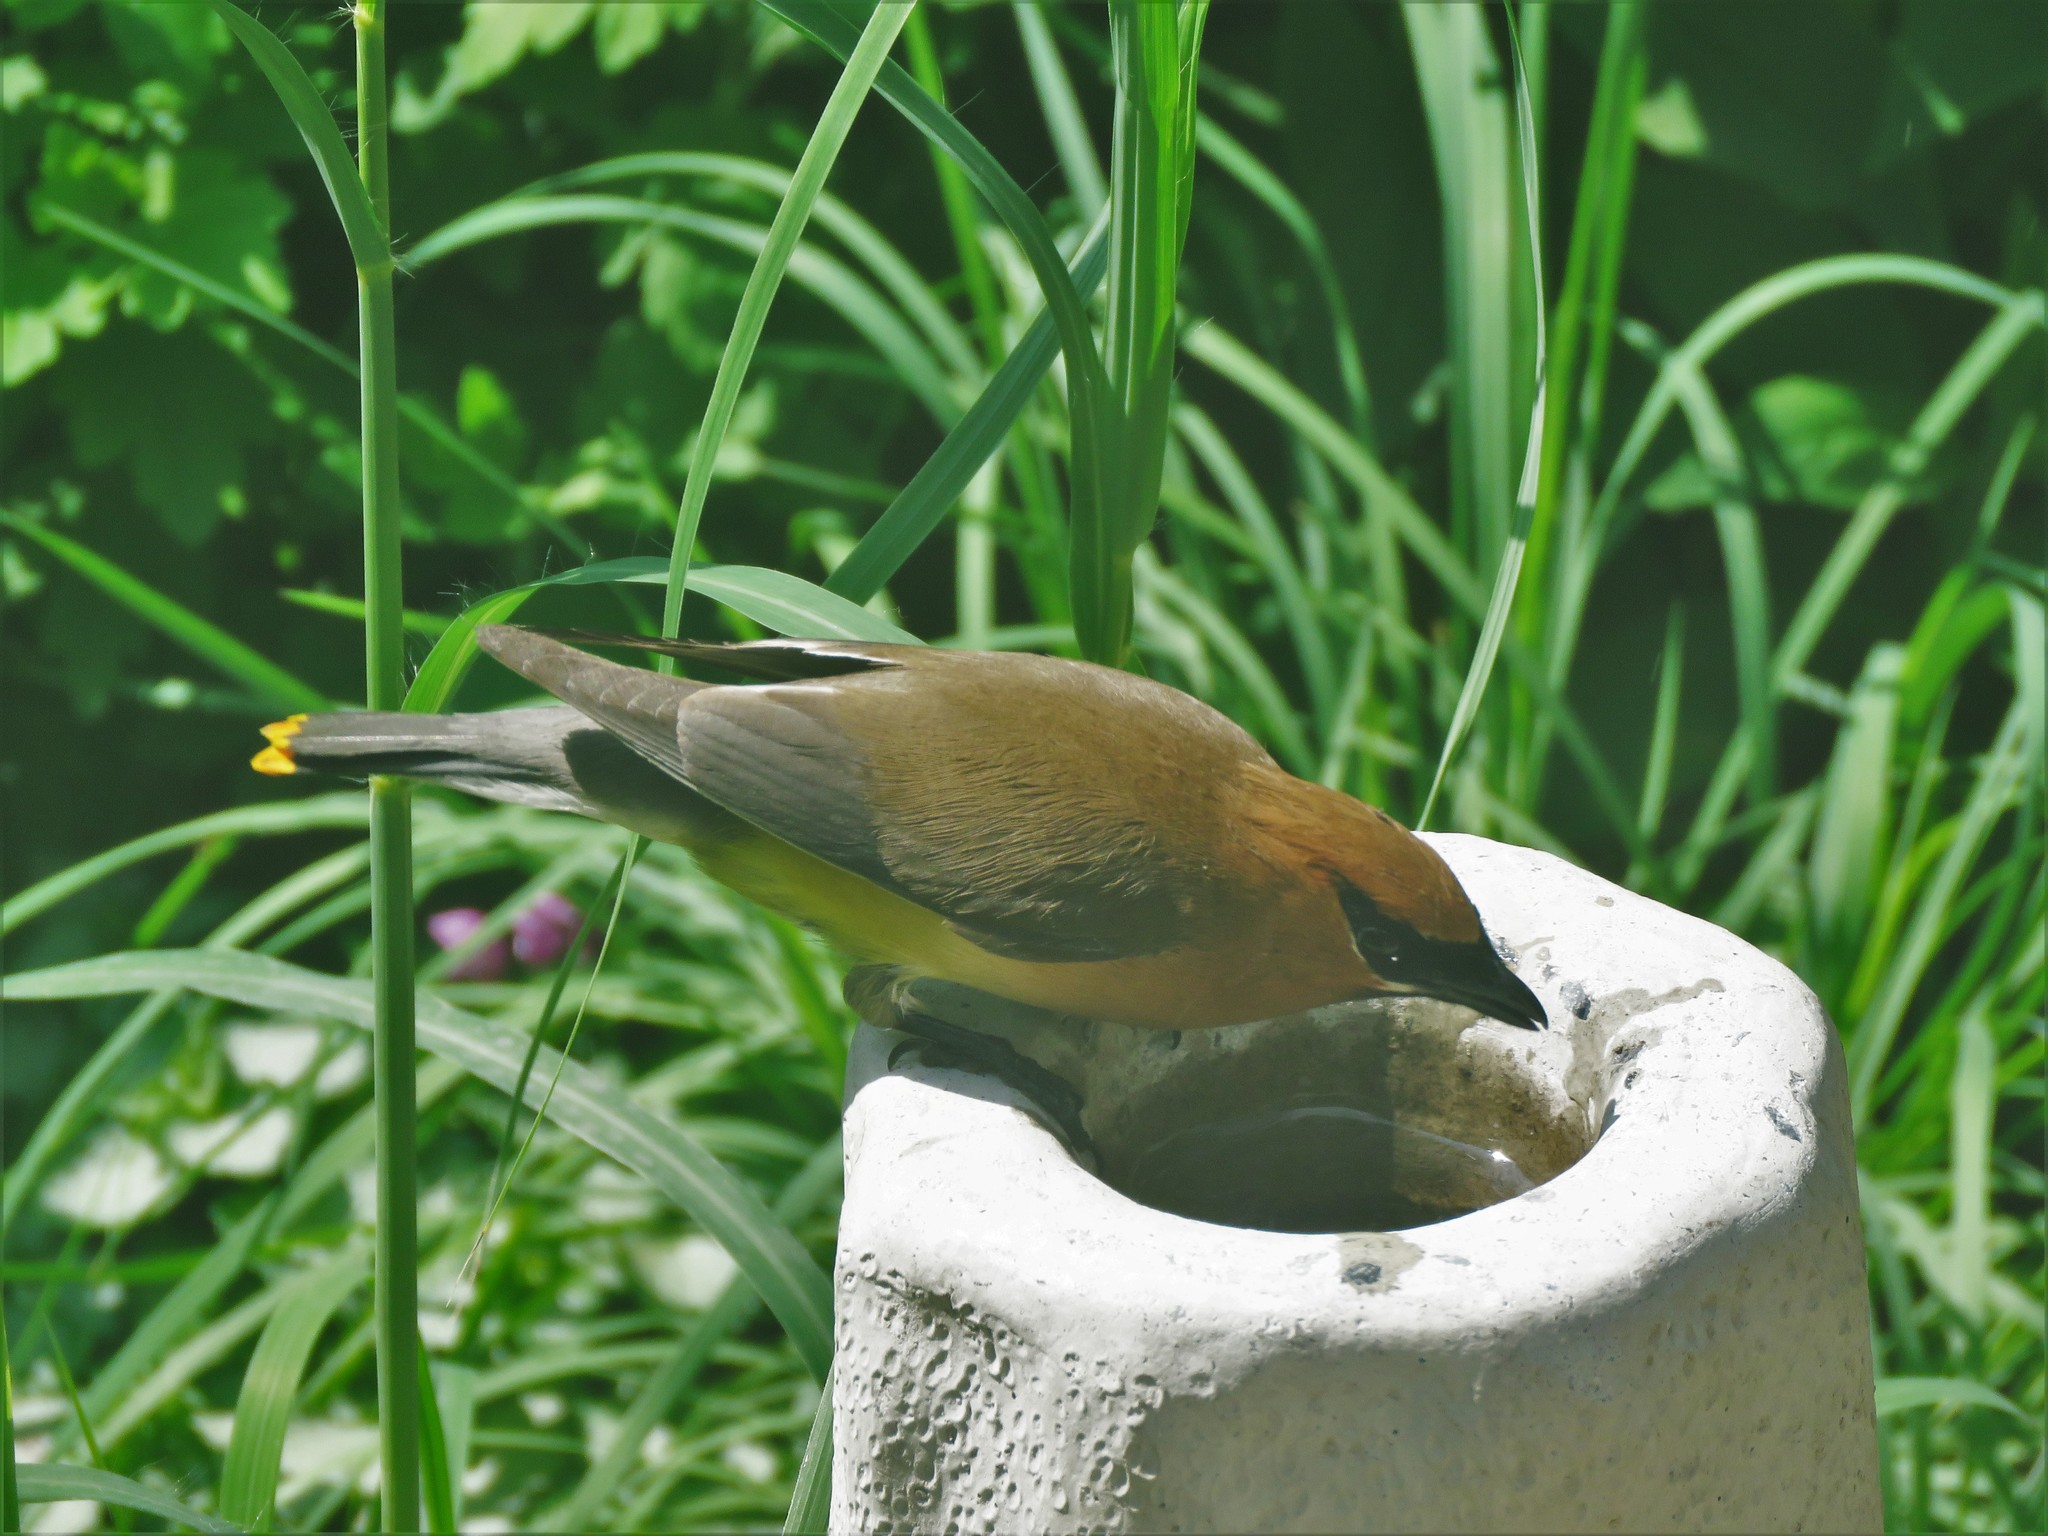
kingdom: Animalia
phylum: Chordata
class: Aves
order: Passeriformes
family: Bombycillidae
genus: Bombycilla
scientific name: Bombycilla cedrorum
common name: Cedar waxwing
